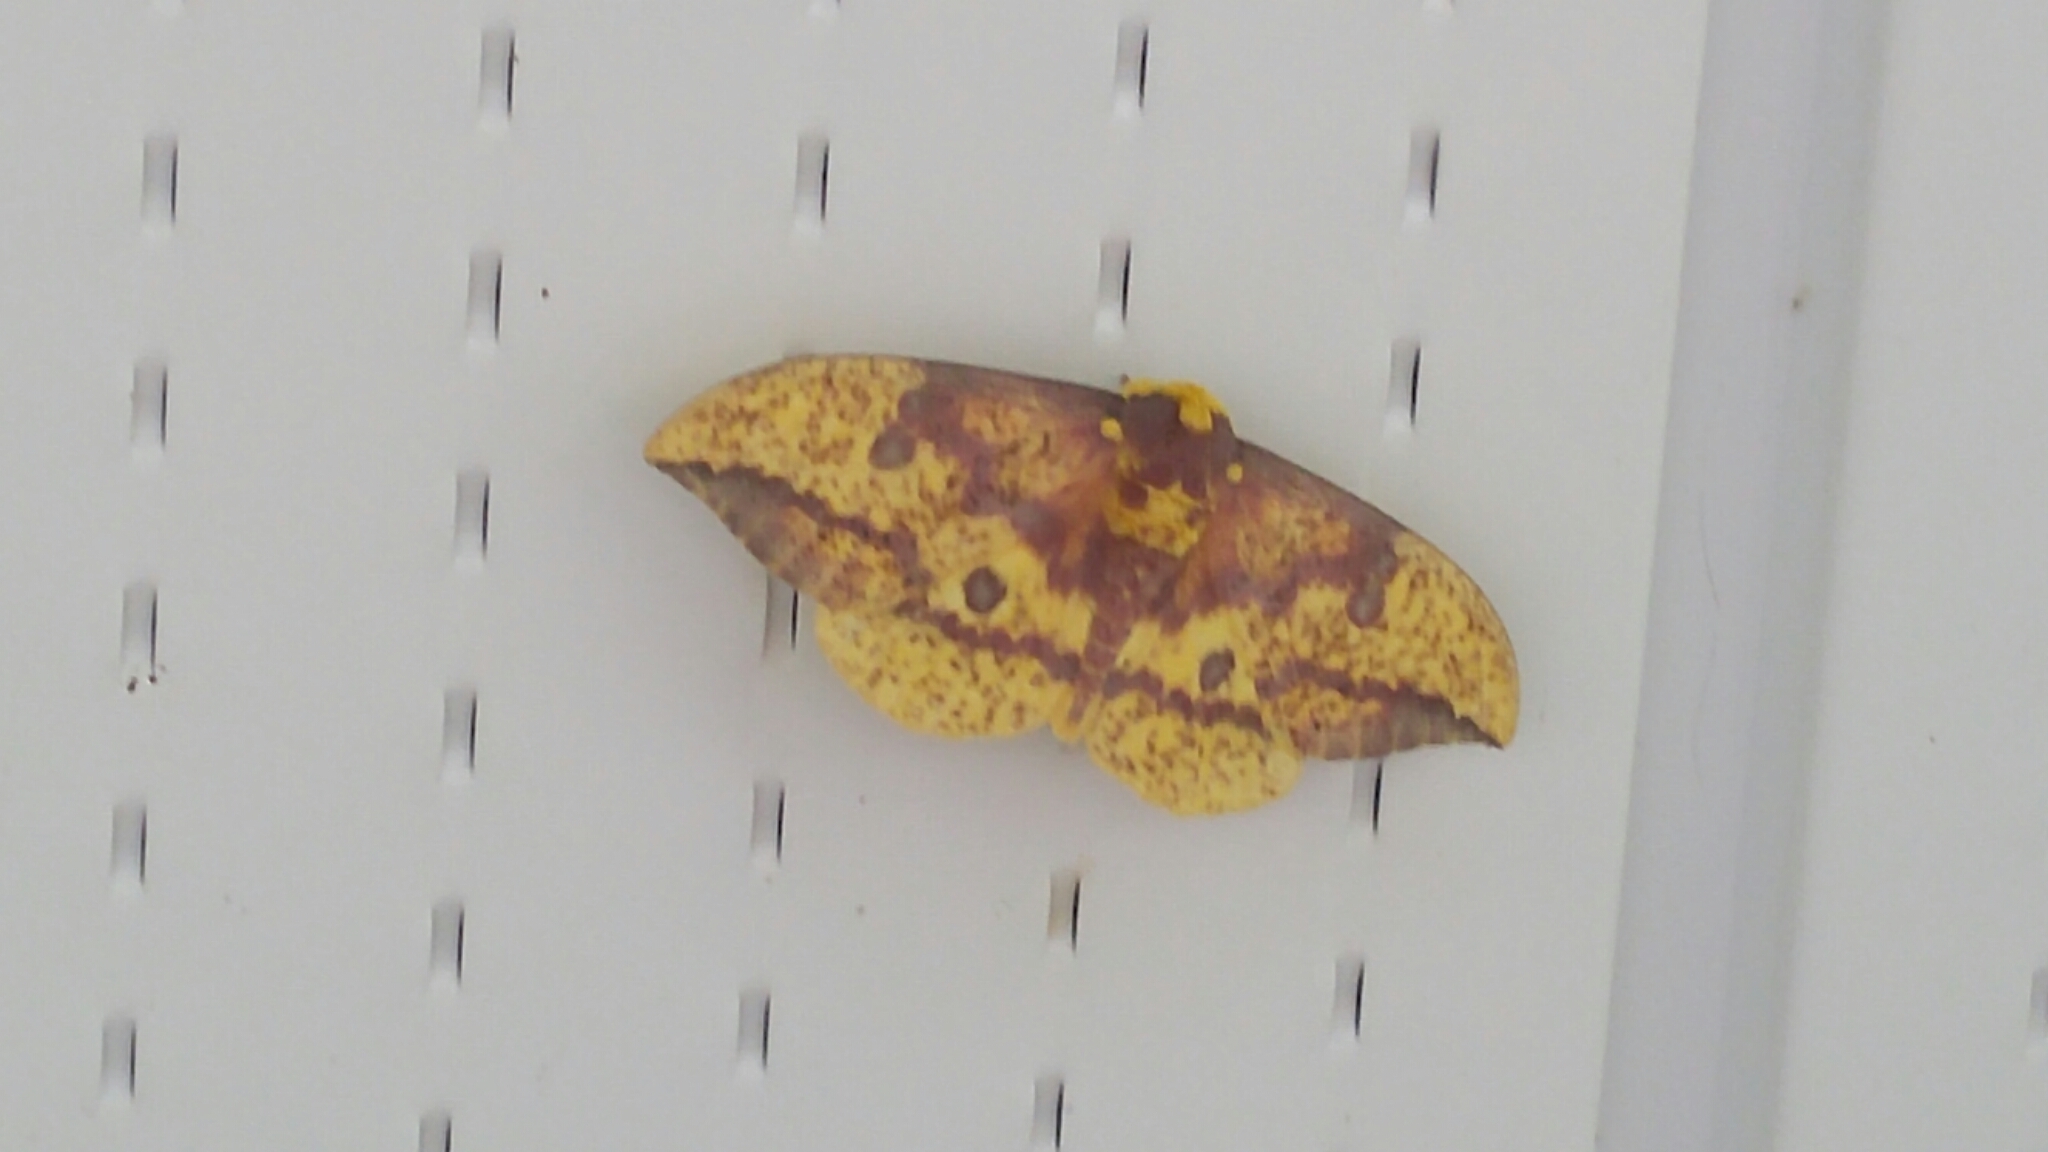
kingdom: Animalia
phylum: Arthropoda
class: Insecta
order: Lepidoptera
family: Saturniidae
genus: Eacles
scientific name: Eacles
